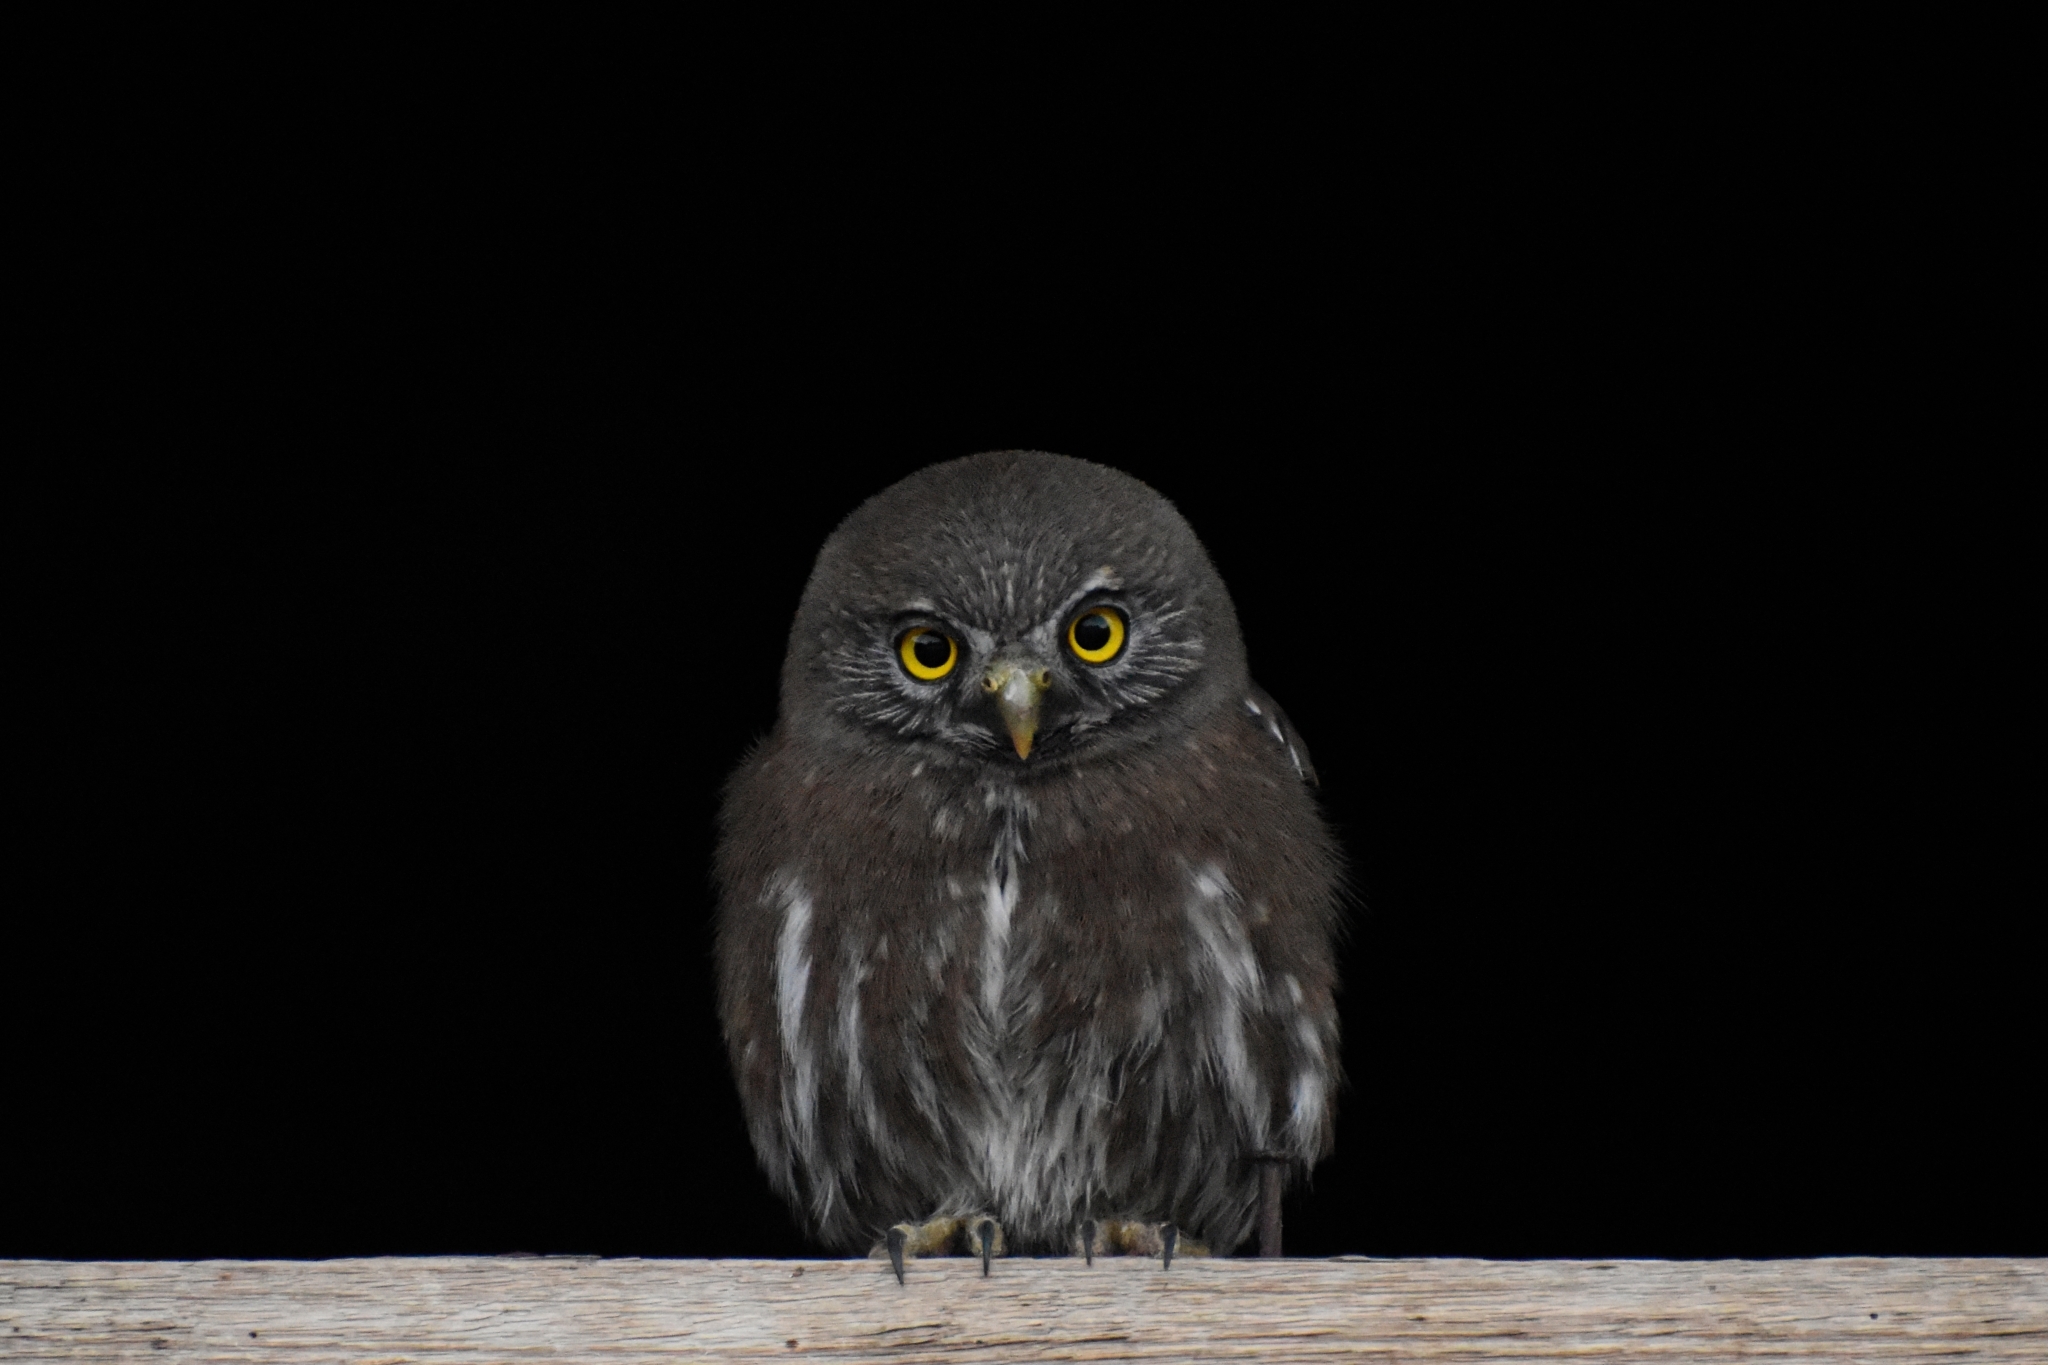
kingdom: Animalia
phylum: Chordata
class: Aves
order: Strigiformes
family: Strigidae
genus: Glaucidium
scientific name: Glaucidium nana
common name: Austral pygmy-owl
